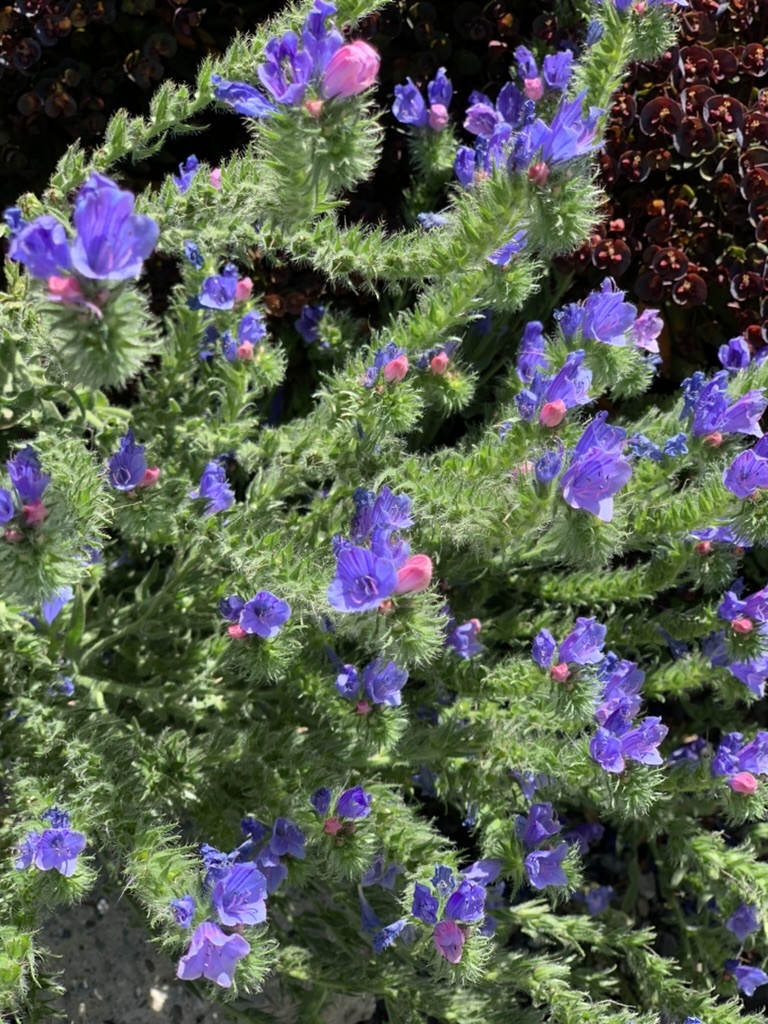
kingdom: Plantae
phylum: Tracheophyta
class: Magnoliopsida
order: Boraginales
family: Boraginaceae
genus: Echium
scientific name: Echium plantagineum
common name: Purple viper's-bugloss
